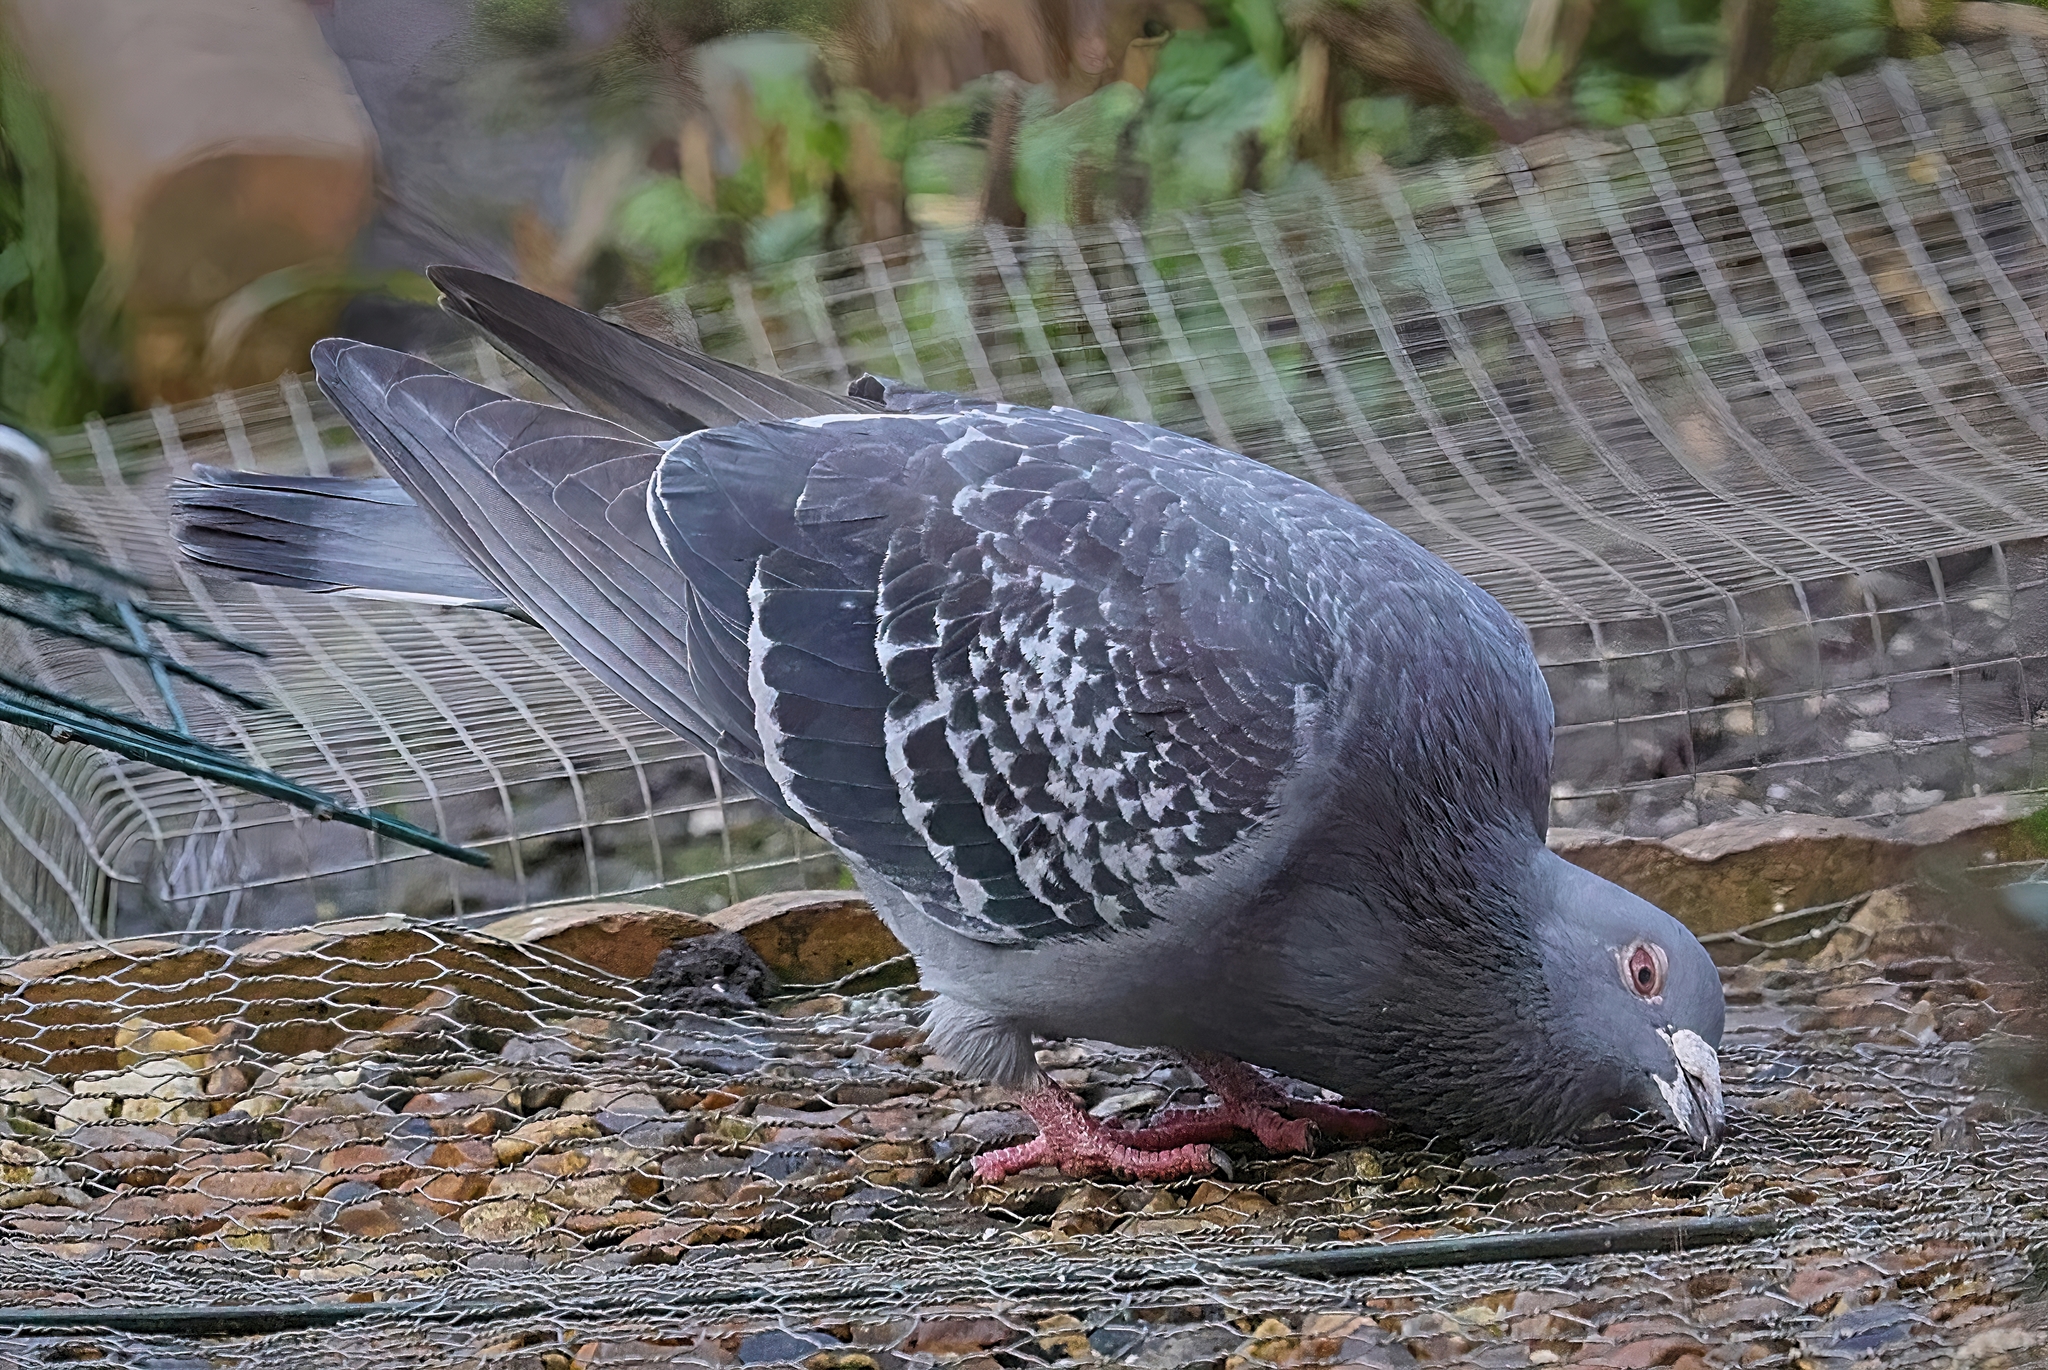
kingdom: Animalia
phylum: Chordata
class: Aves
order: Columbiformes
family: Columbidae
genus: Columba
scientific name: Columba livia
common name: Rock pigeon
